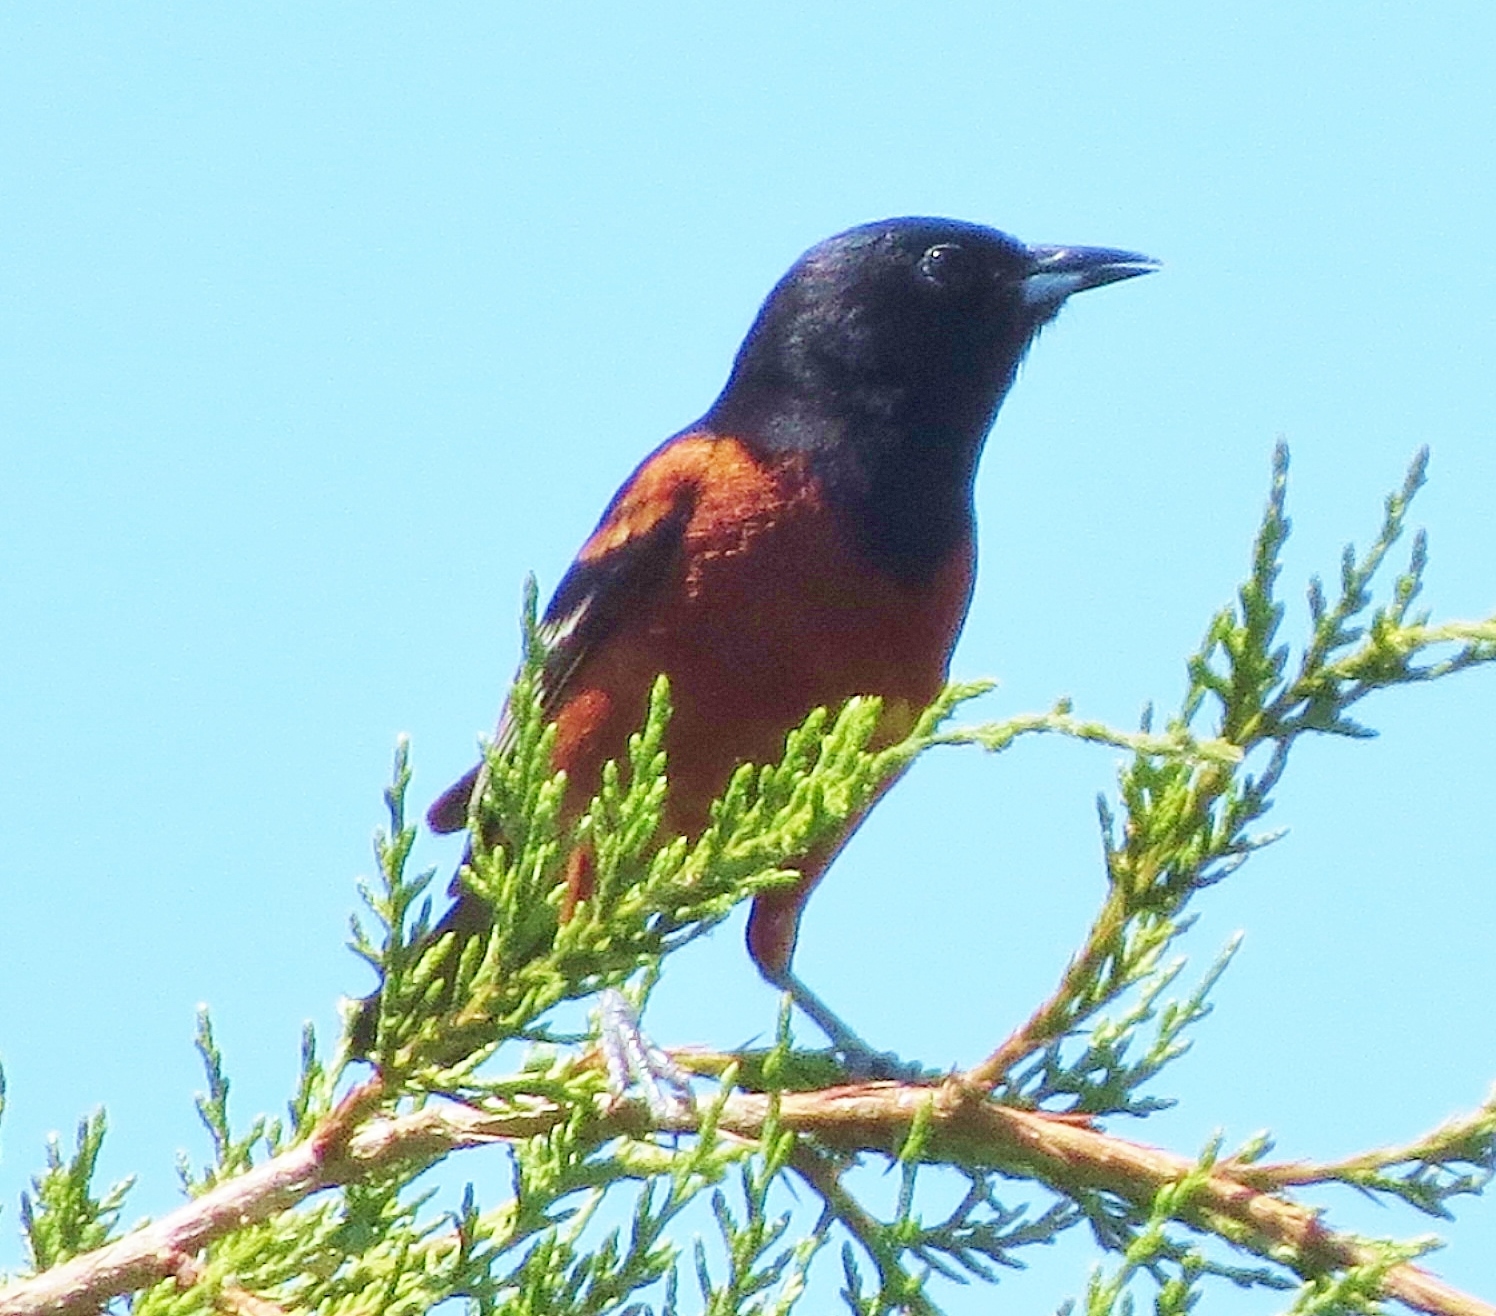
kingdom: Animalia
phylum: Chordata
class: Aves
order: Passeriformes
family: Icteridae
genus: Icterus
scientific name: Icterus spurius
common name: Orchard oriole
